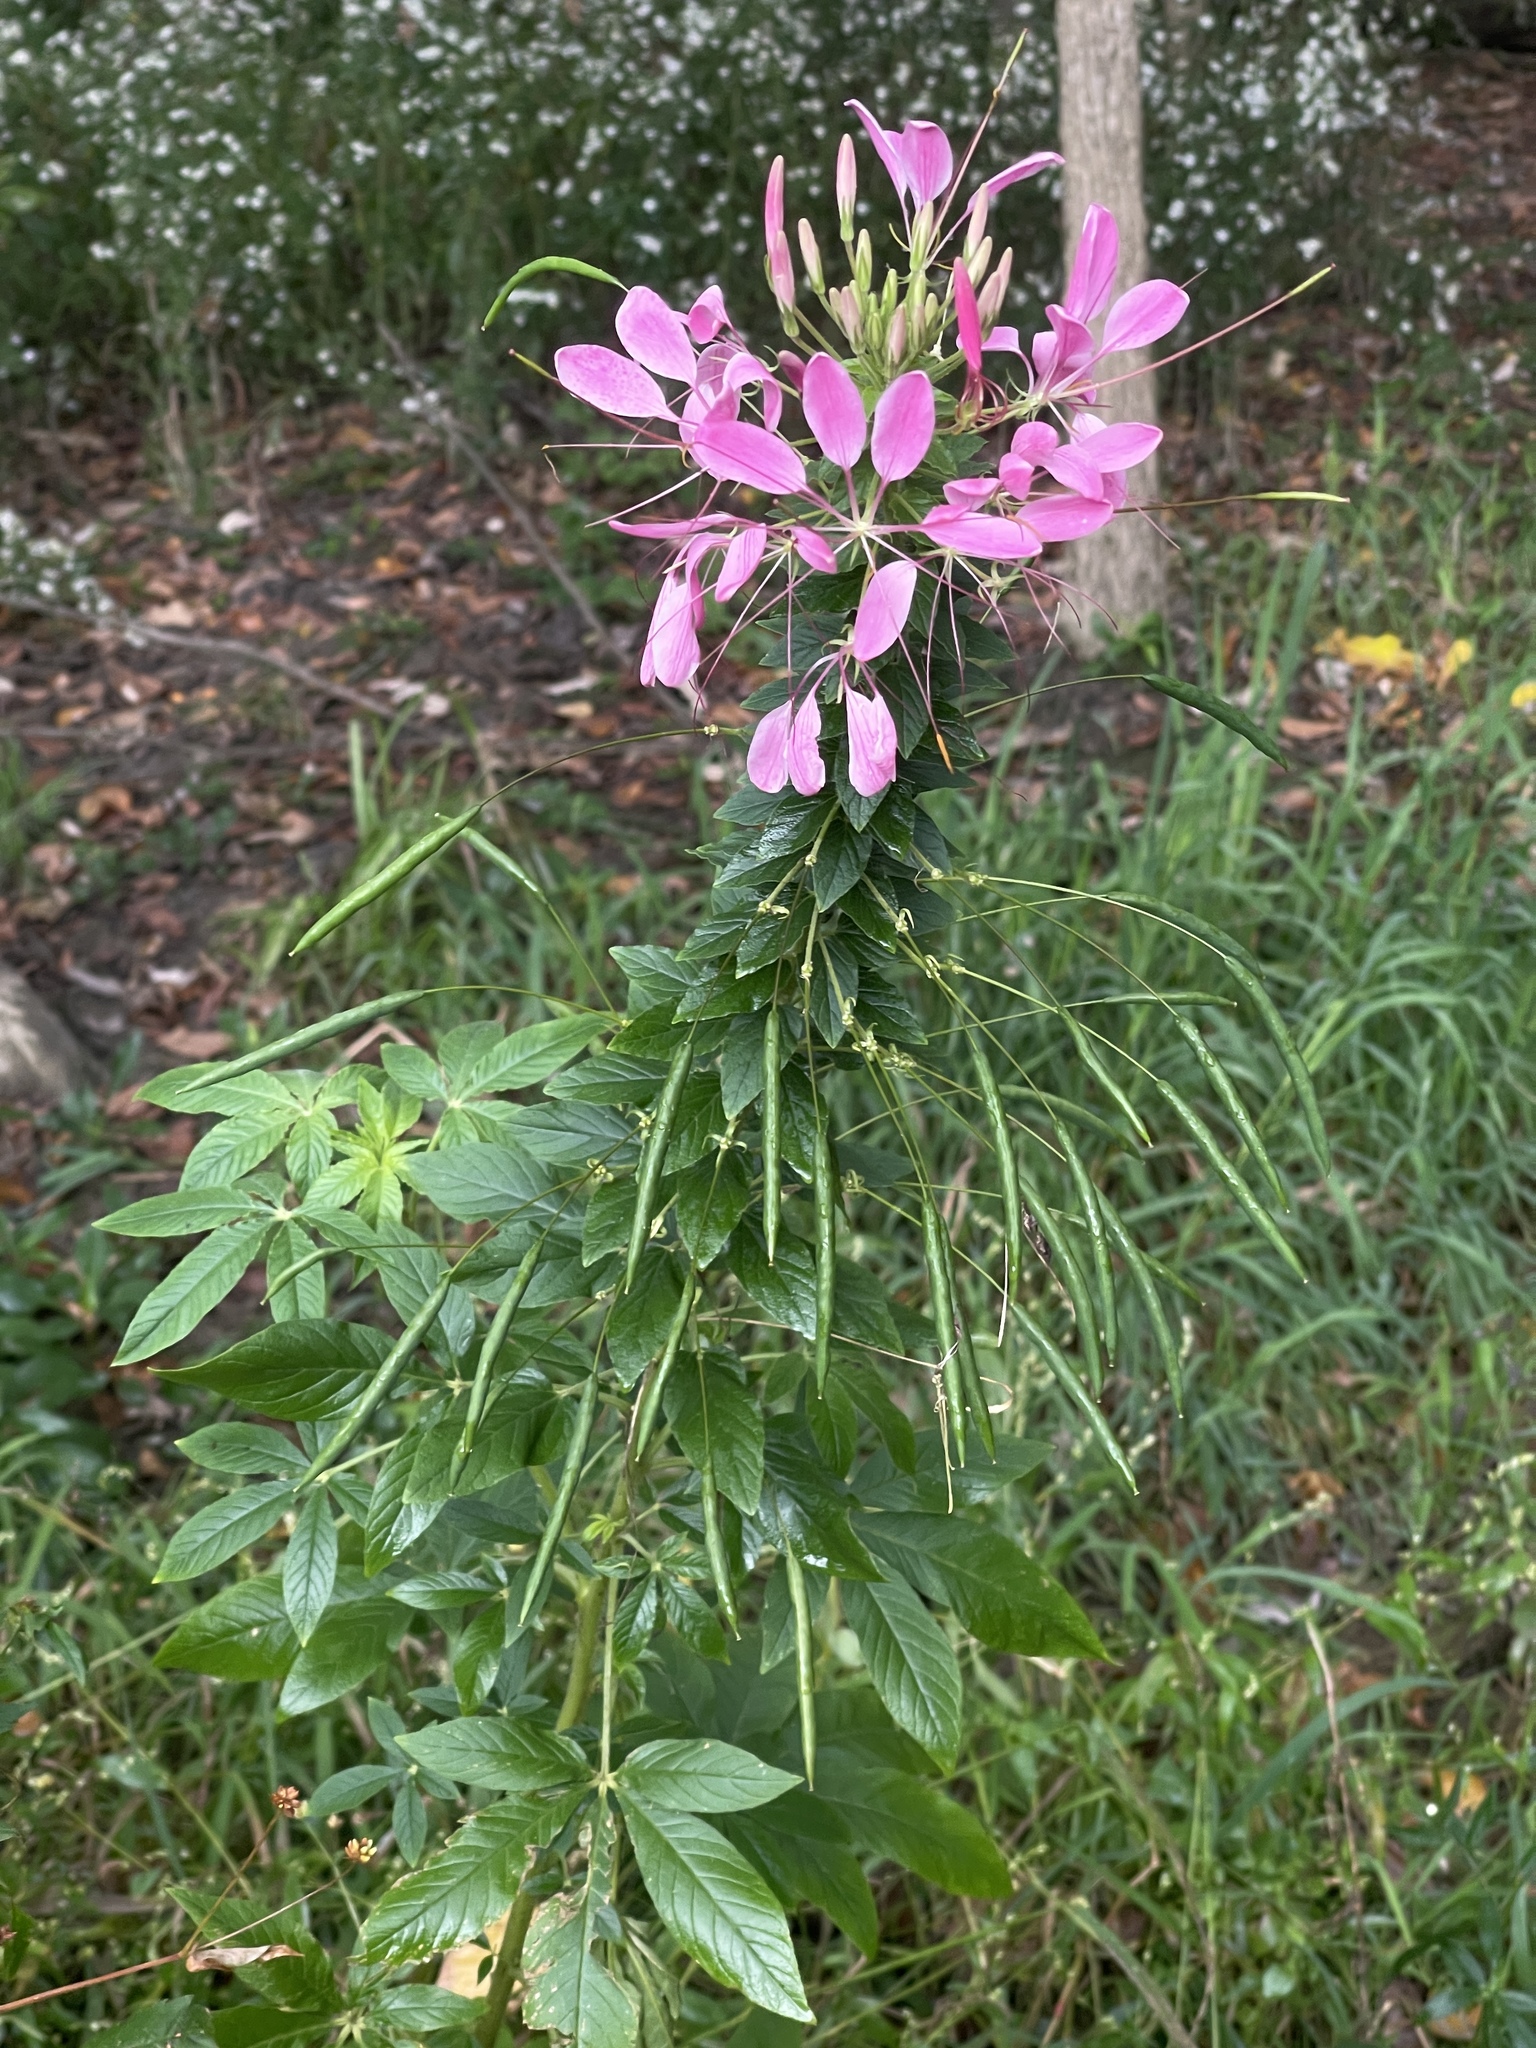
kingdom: Plantae
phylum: Tracheophyta
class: Magnoliopsida
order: Brassicales
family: Cleomaceae
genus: Tarenaya
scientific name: Tarenaya houtteana
